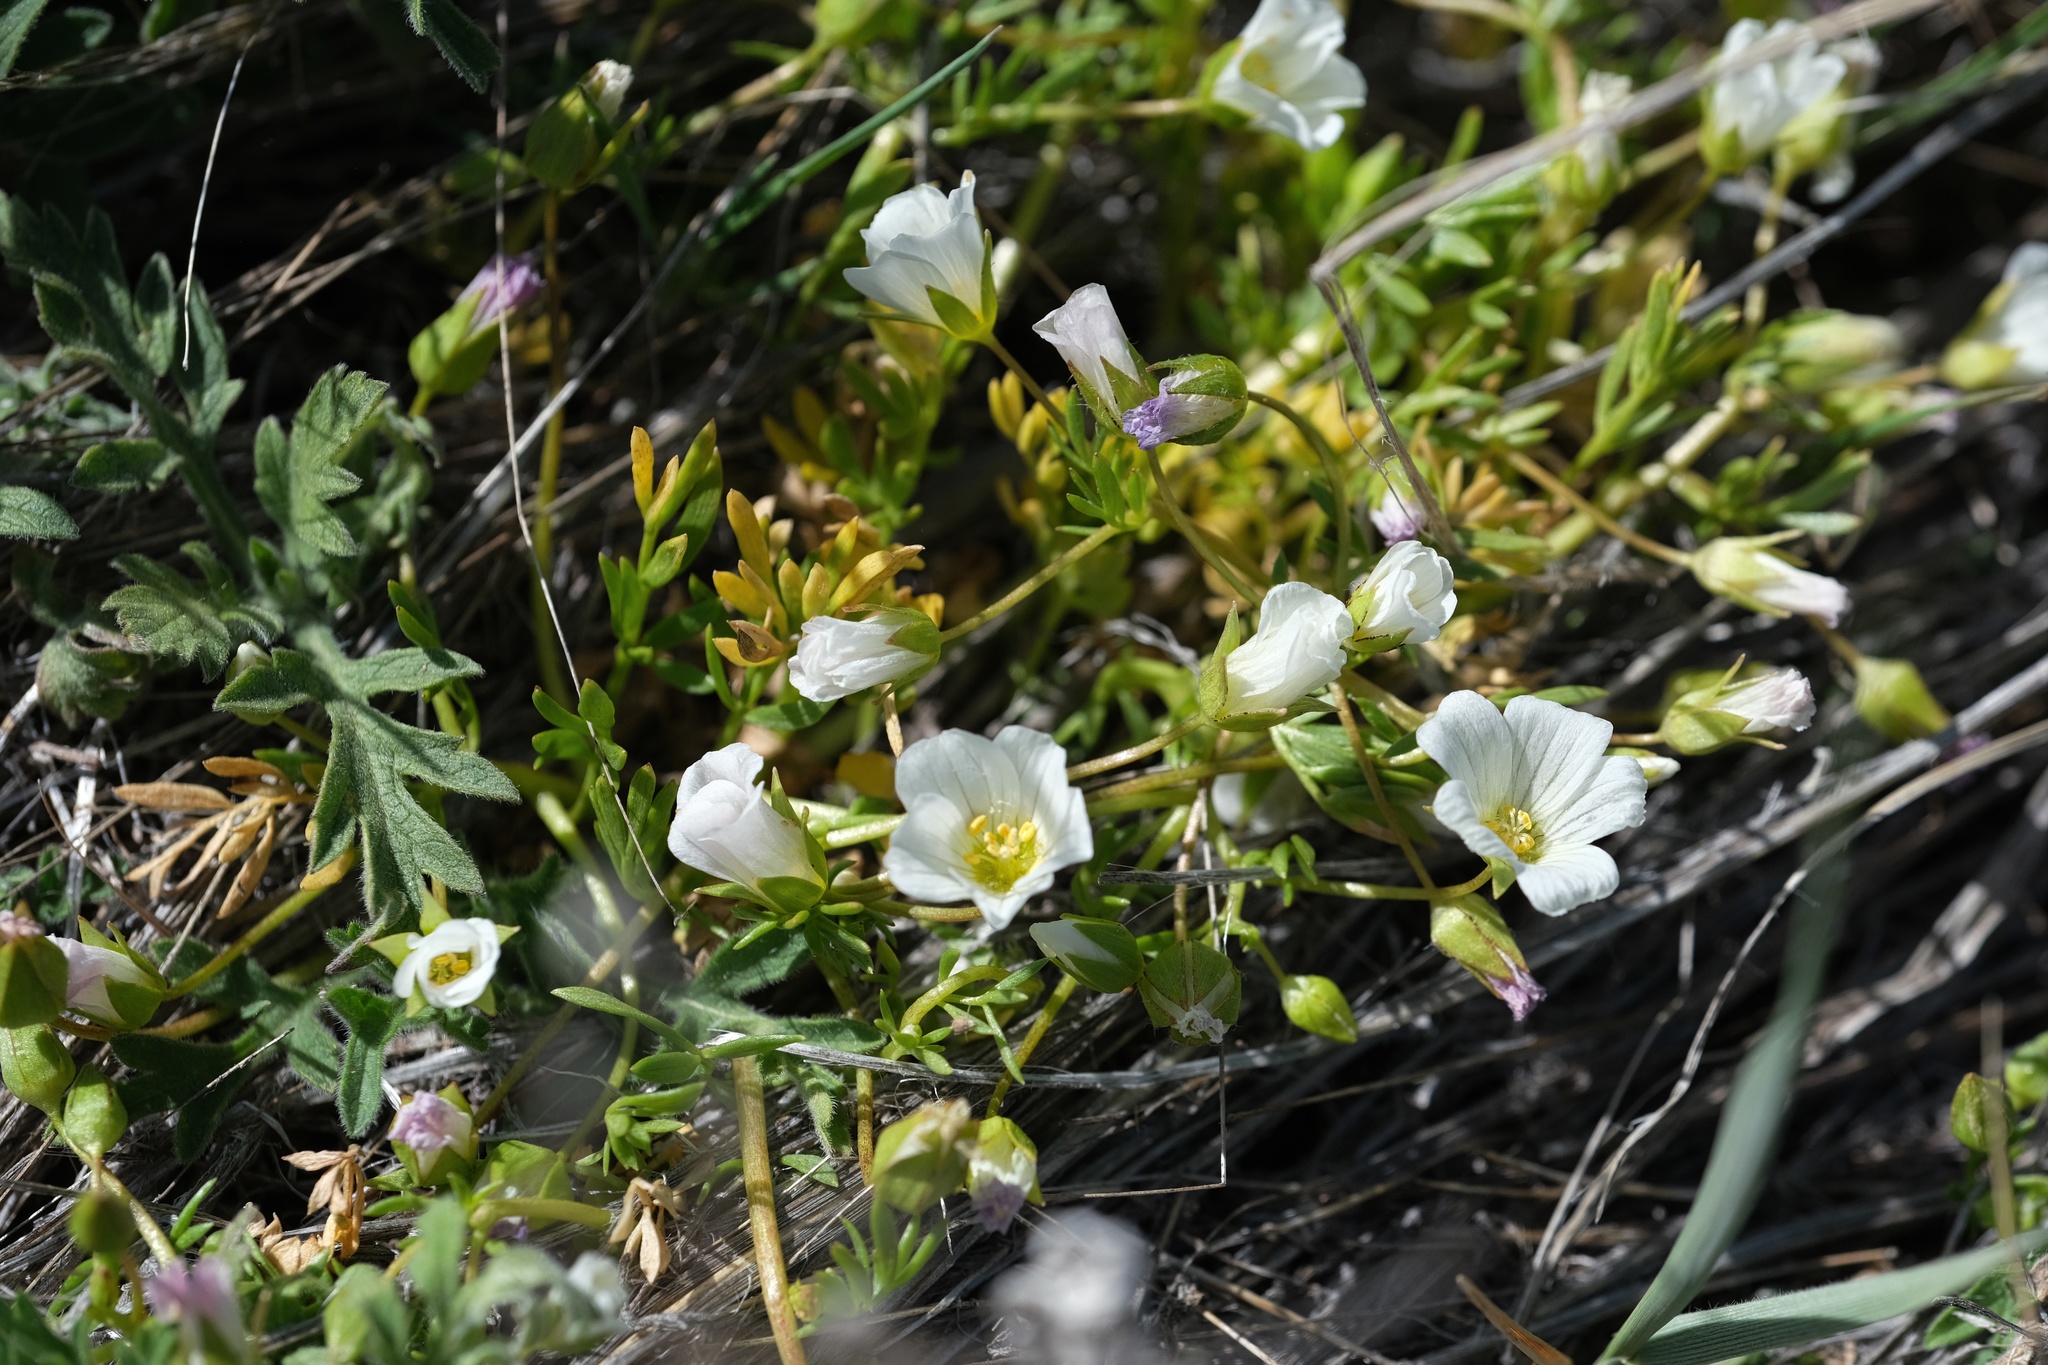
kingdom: Plantae
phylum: Tracheophyta
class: Magnoliopsida
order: Brassicales
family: Limnanthaceae
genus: Limnanthes
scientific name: Limnanthes alba
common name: Meadowfoam
